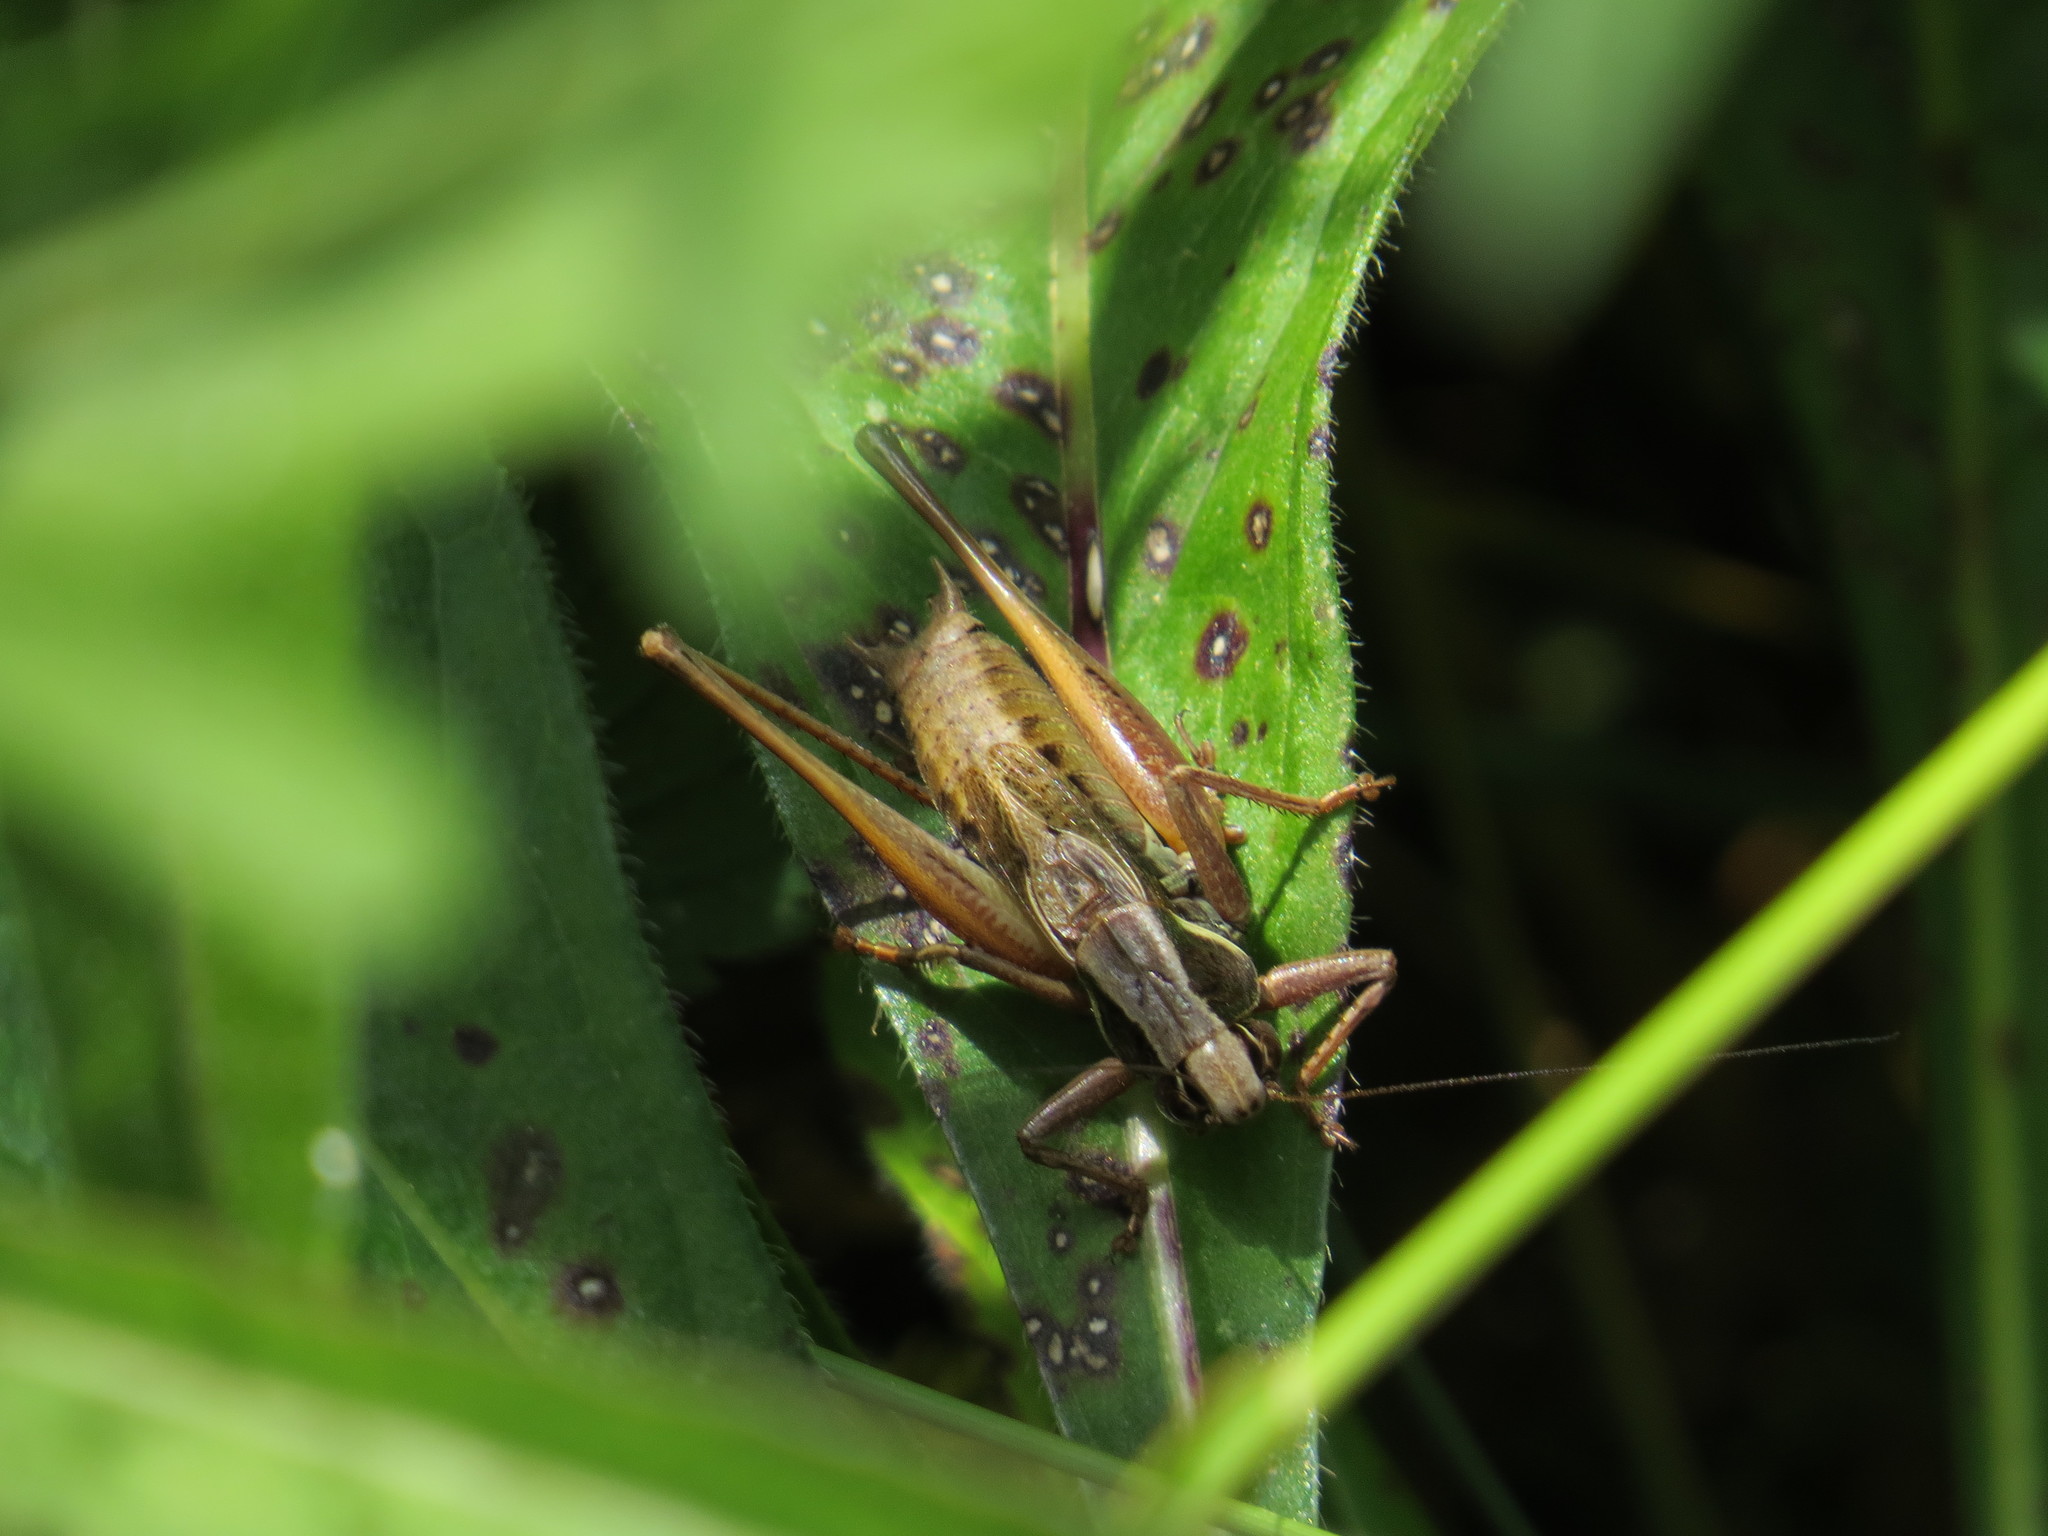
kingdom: Animalia
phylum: Arthropoda
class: Insecta
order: Orthoptera
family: Tettigoniidae
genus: Metrioptera
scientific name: Metrioptera saussuriana
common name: Purple meadow bush-cricket
